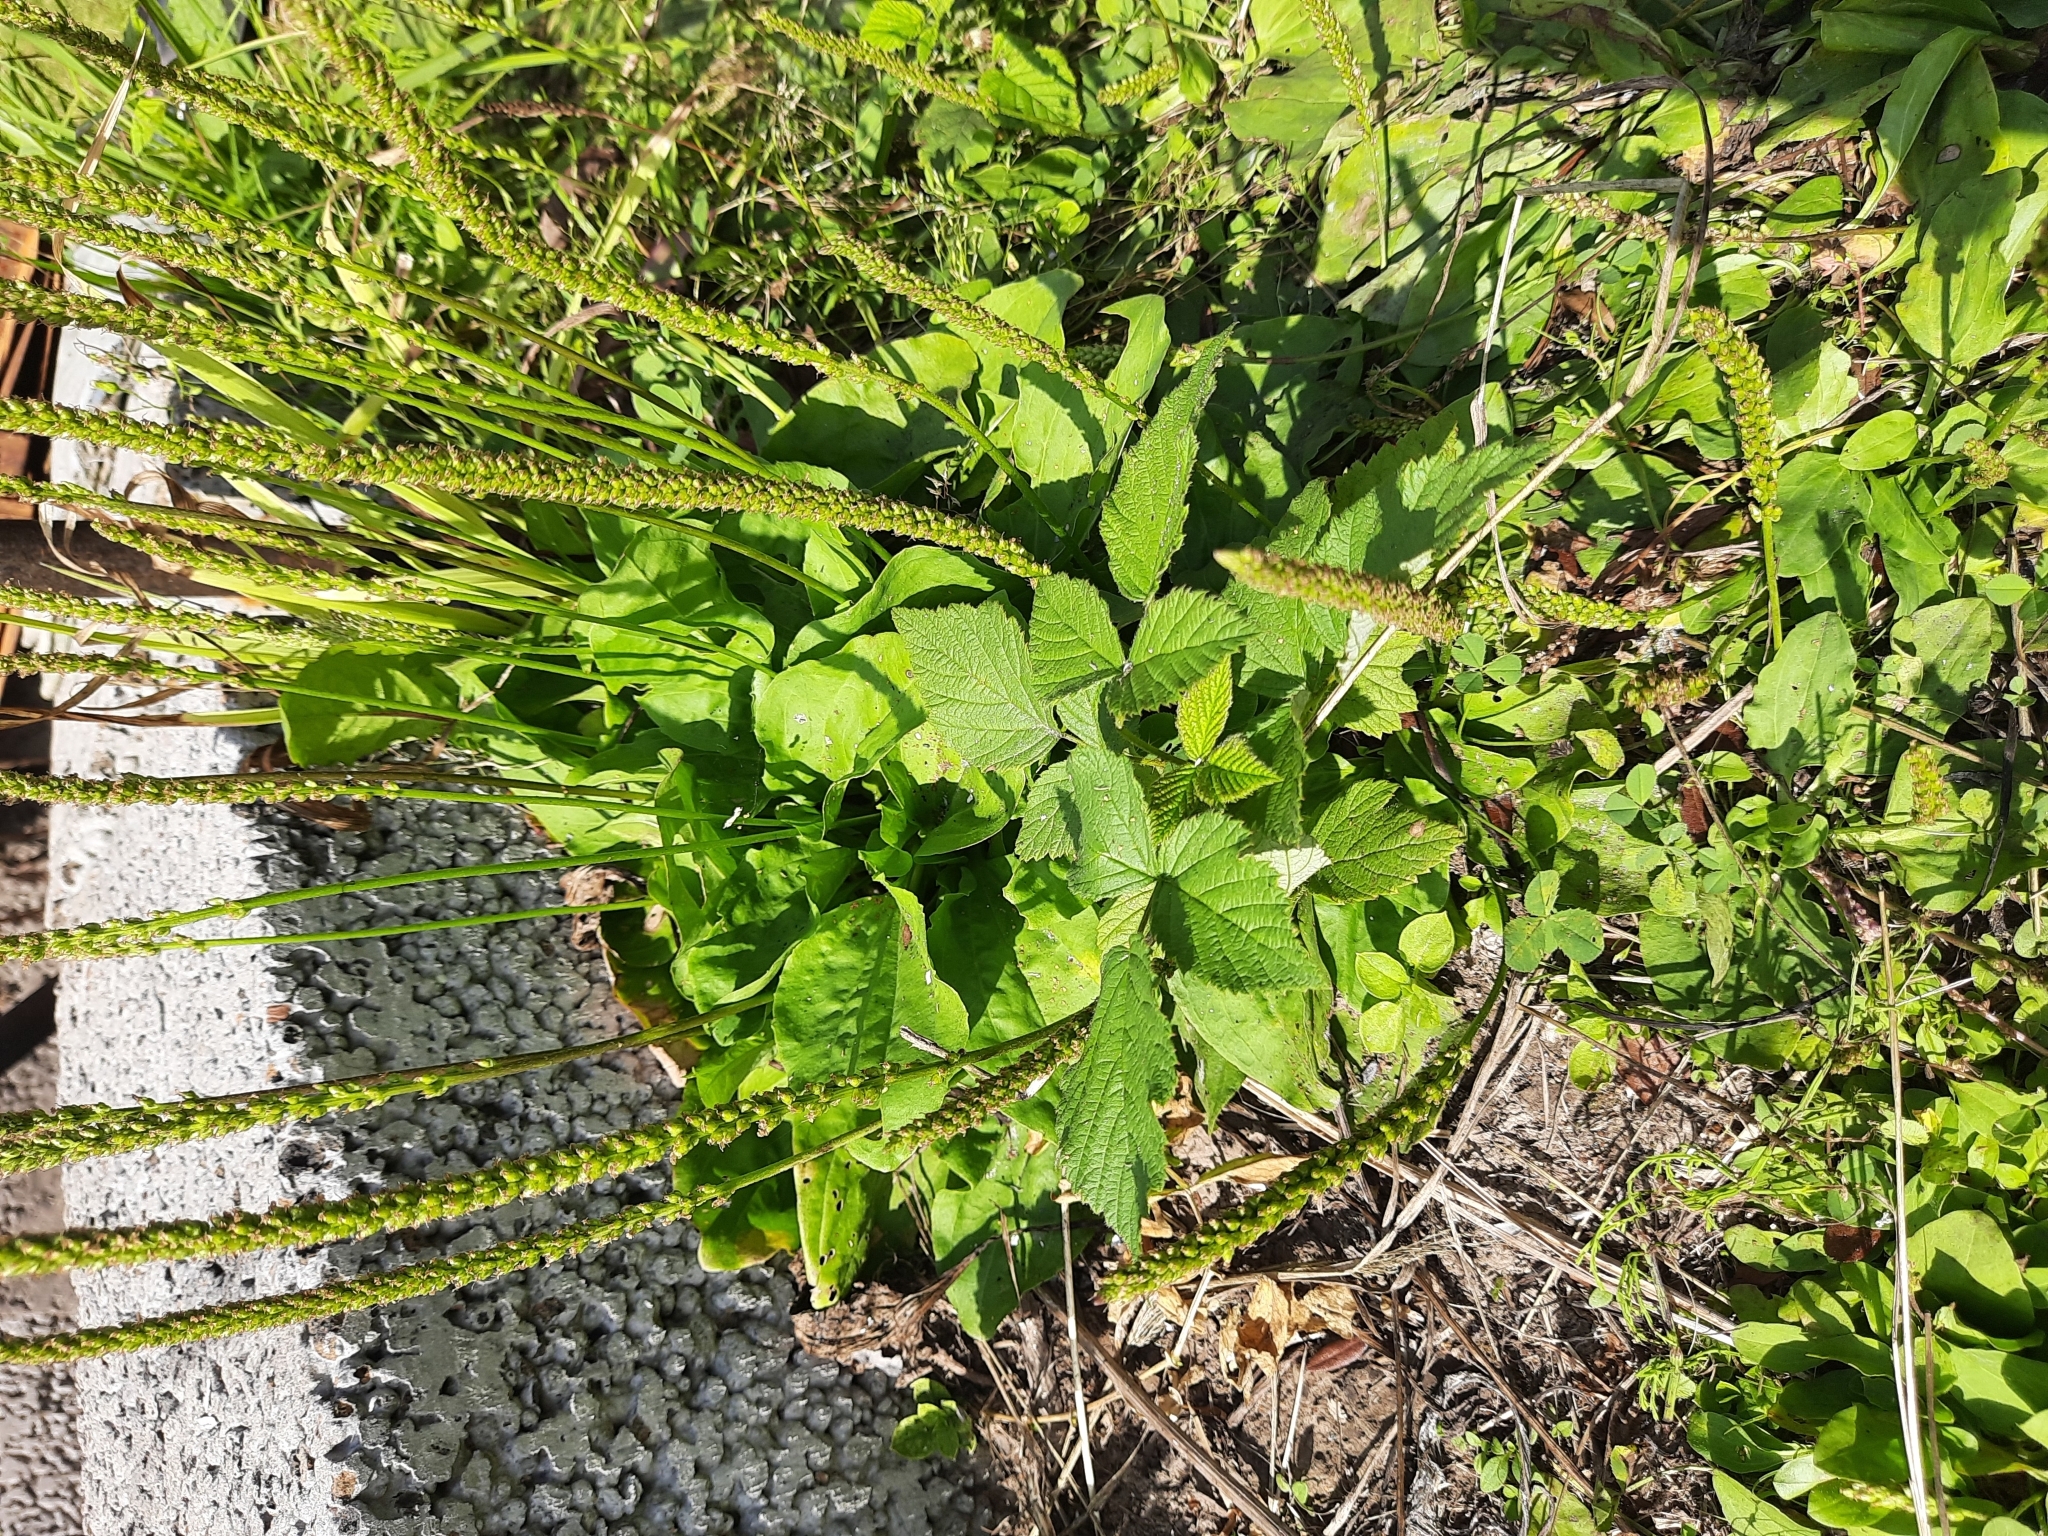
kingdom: Plantae
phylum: Tracheophyta
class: Magnoliopsida
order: Lamiales
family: Plantaginaceae
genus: Plantago
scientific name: Plantago major
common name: Common plantain
